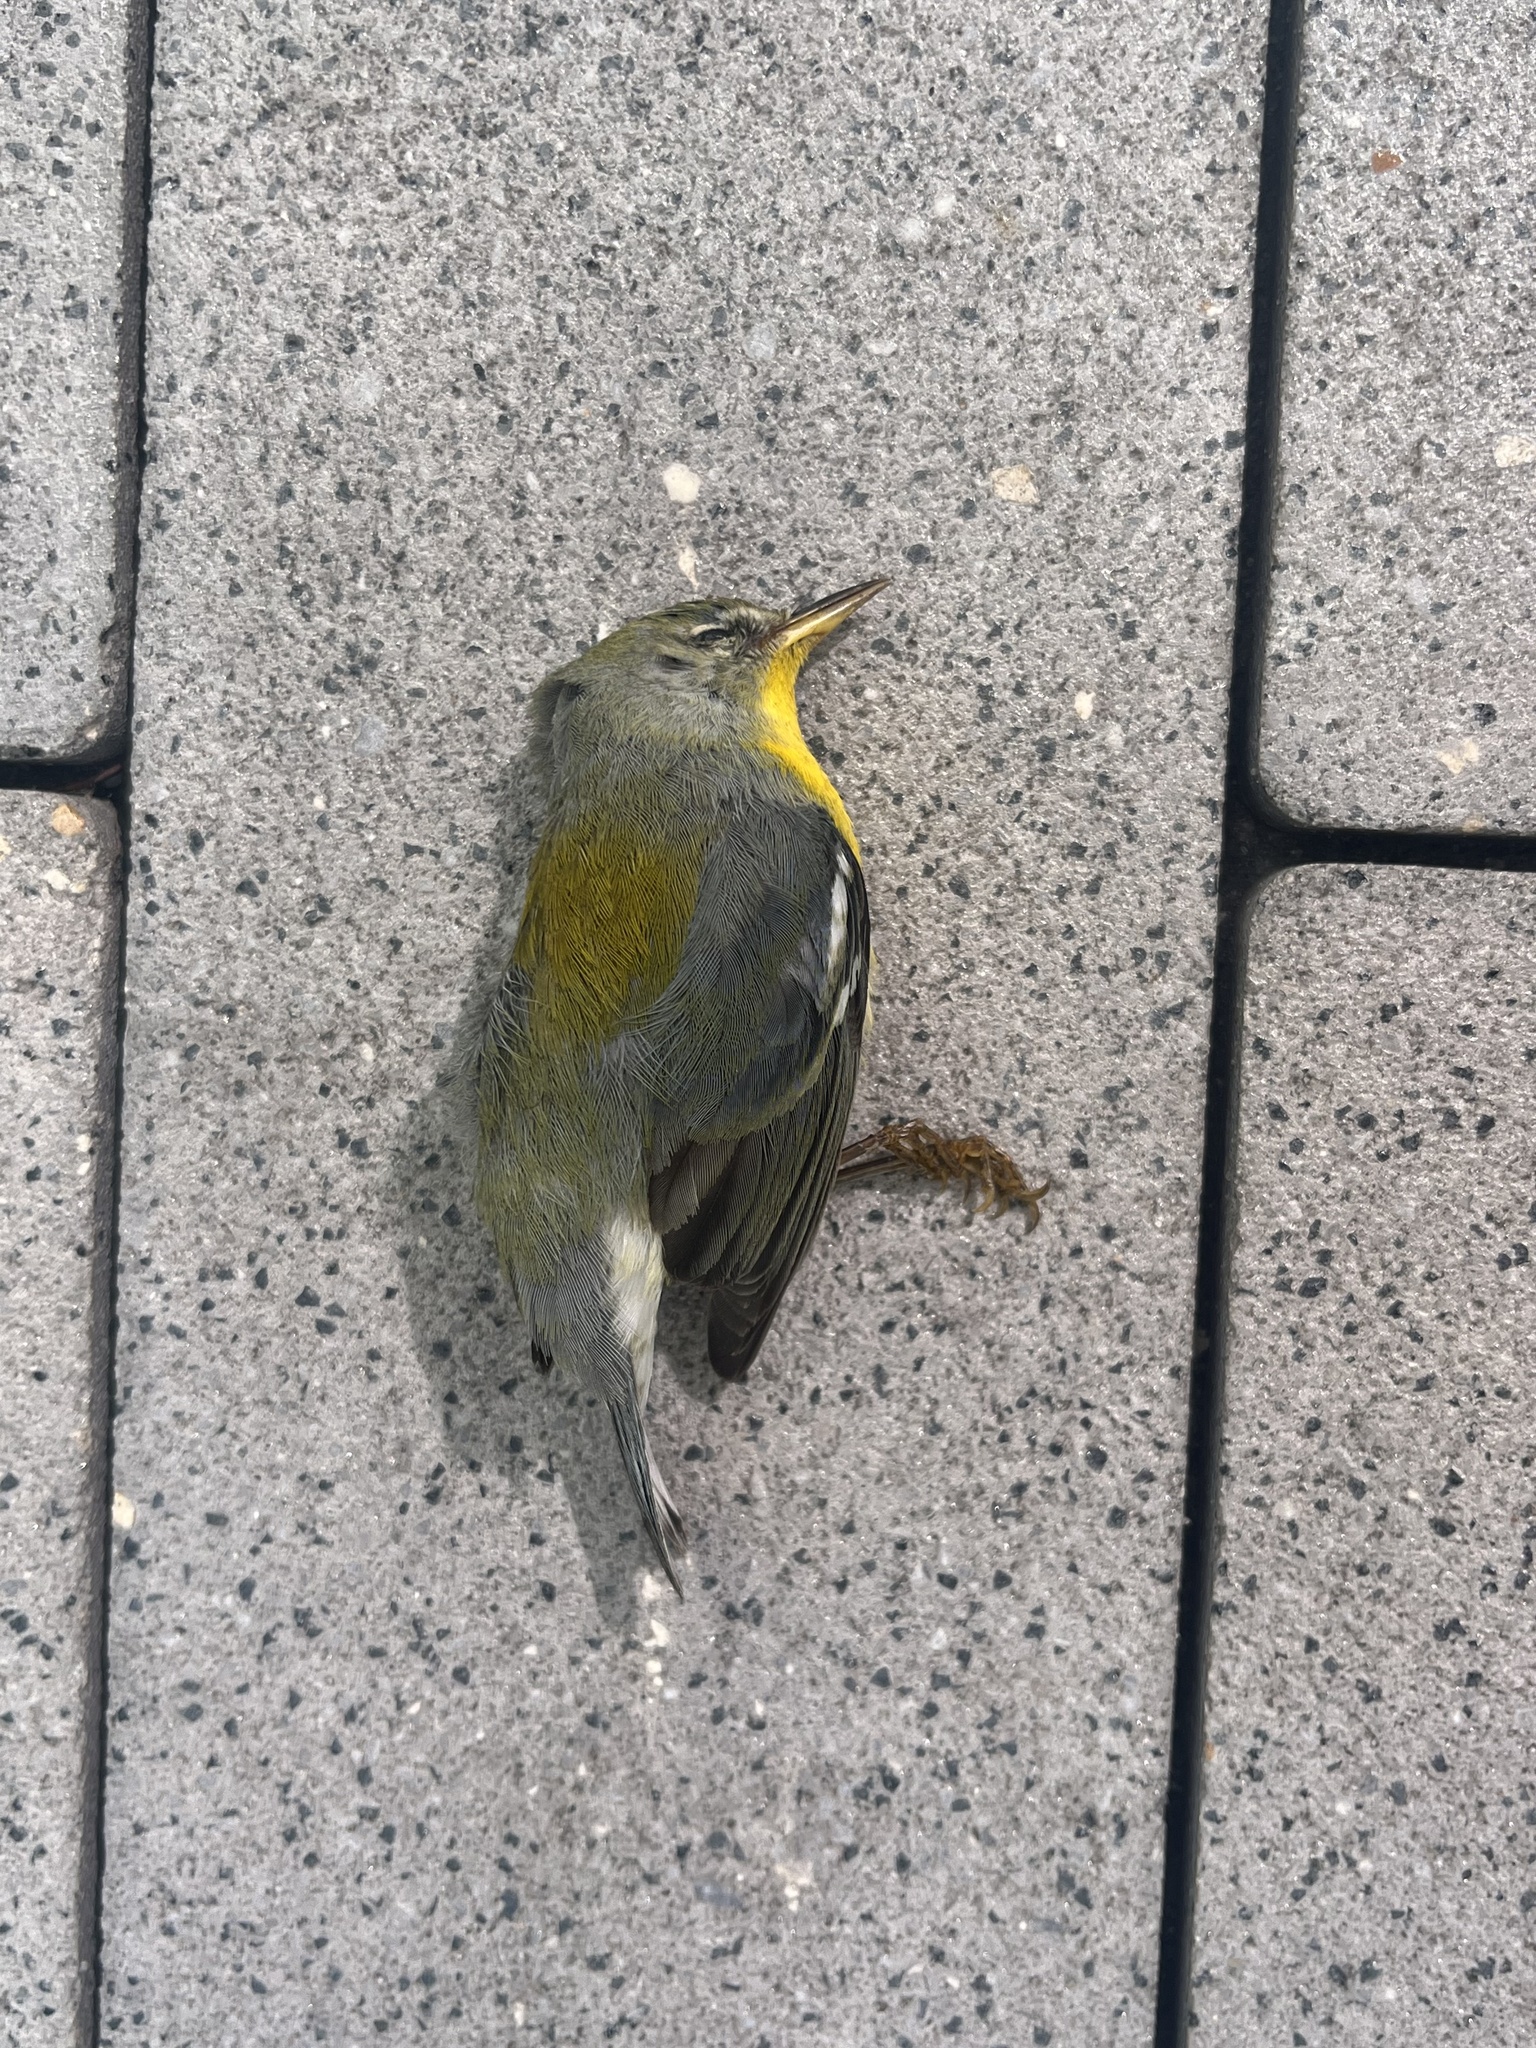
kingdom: Animalia
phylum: Chordata
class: Aves
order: Passeriformes
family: Parulidae
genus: Setophaga
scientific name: Setophaga americana
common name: Northern parula
